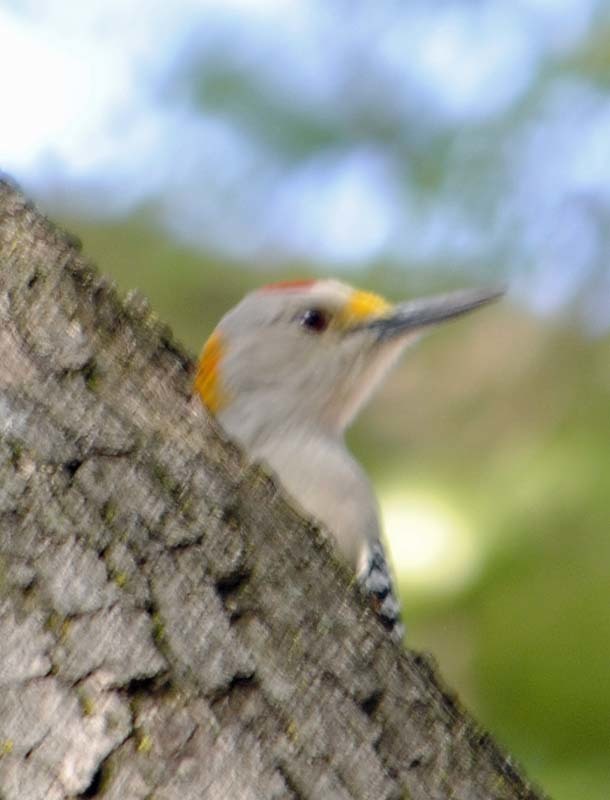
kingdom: Animalia
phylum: Chordata
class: Aves
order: Piciformes
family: Picidae
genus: Melanerpes
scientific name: Melanerpes aurifrons
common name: Golden-fronted woodpecker
